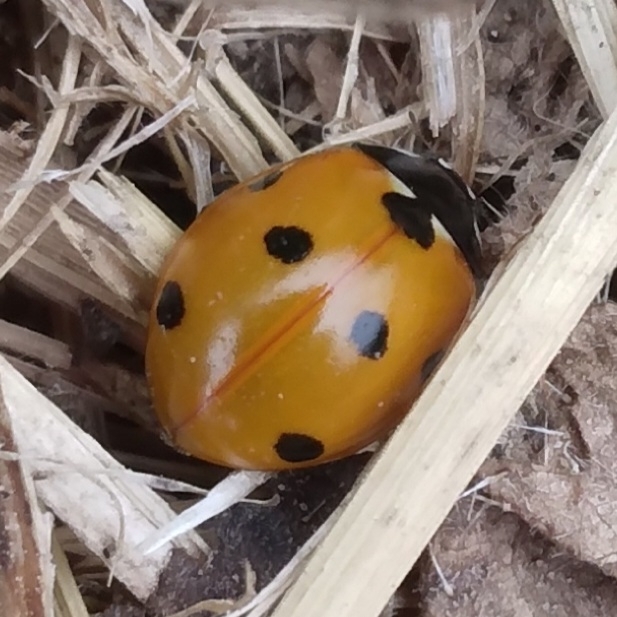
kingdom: Animalia
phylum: Arthropoda
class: Insecta
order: Coleoptera
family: Coccinellidae
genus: Coccinella
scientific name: Coccinella septempunctata
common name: Sevenspotted lady beetle
